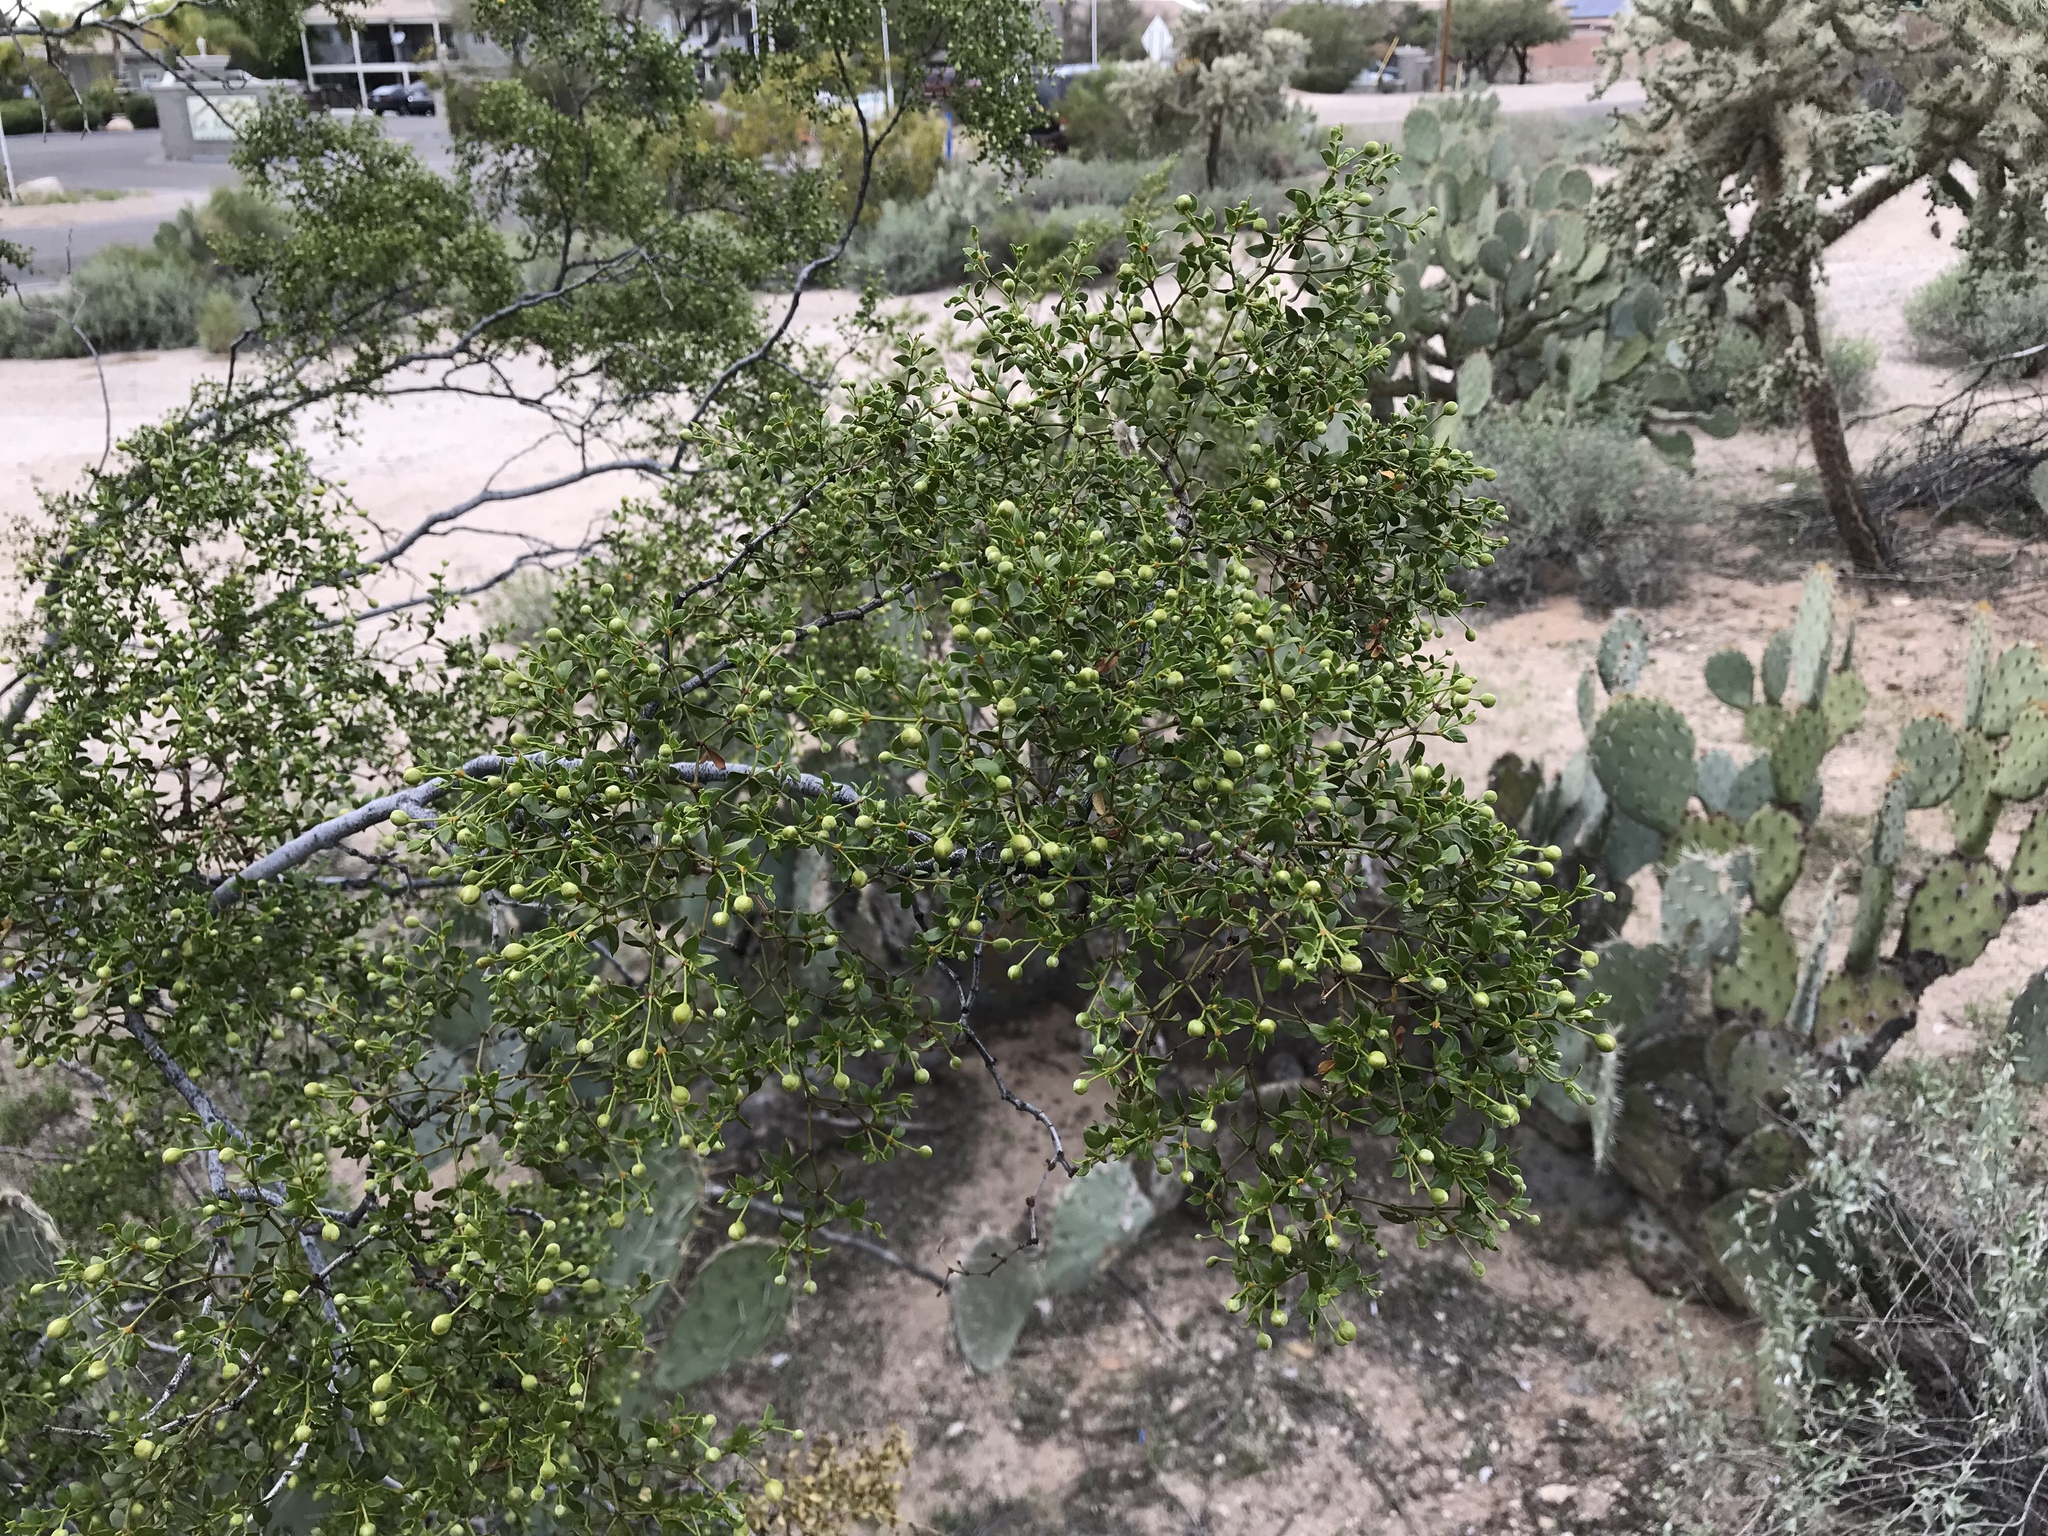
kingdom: Plantae
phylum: Tracheophyta
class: Magnoliopsida
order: Zygophyllales
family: Zygophyllaceae
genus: Larrea
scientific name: Larrea tridentata
